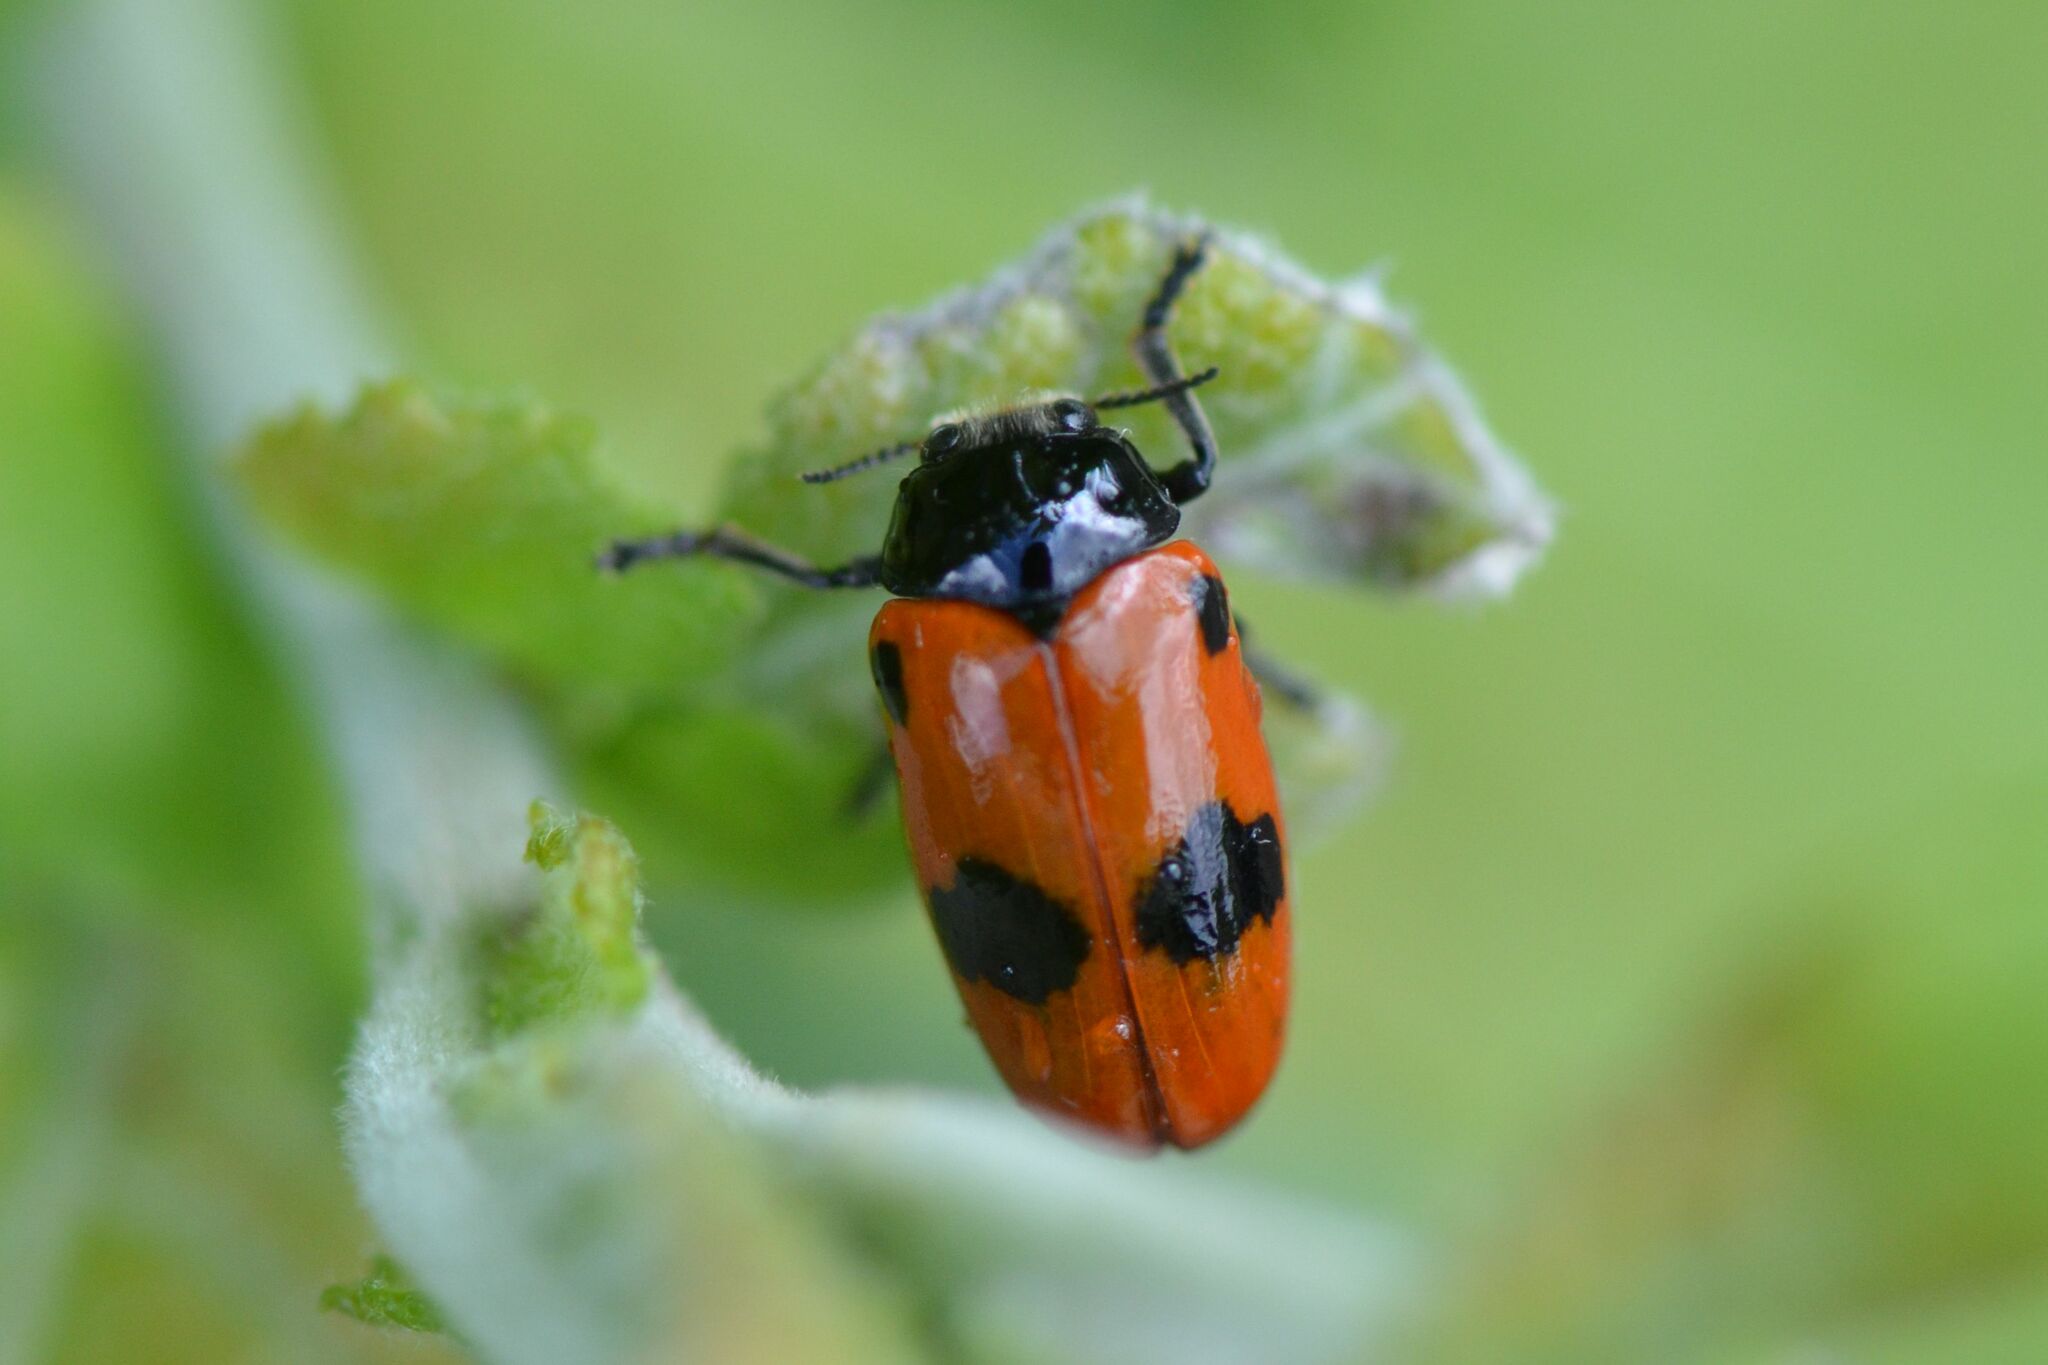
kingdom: Animalia
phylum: Arthropoda
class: Insecta
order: Coleoptera
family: Chrysomelidae
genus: Clytra
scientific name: Clytra laeviuscula
